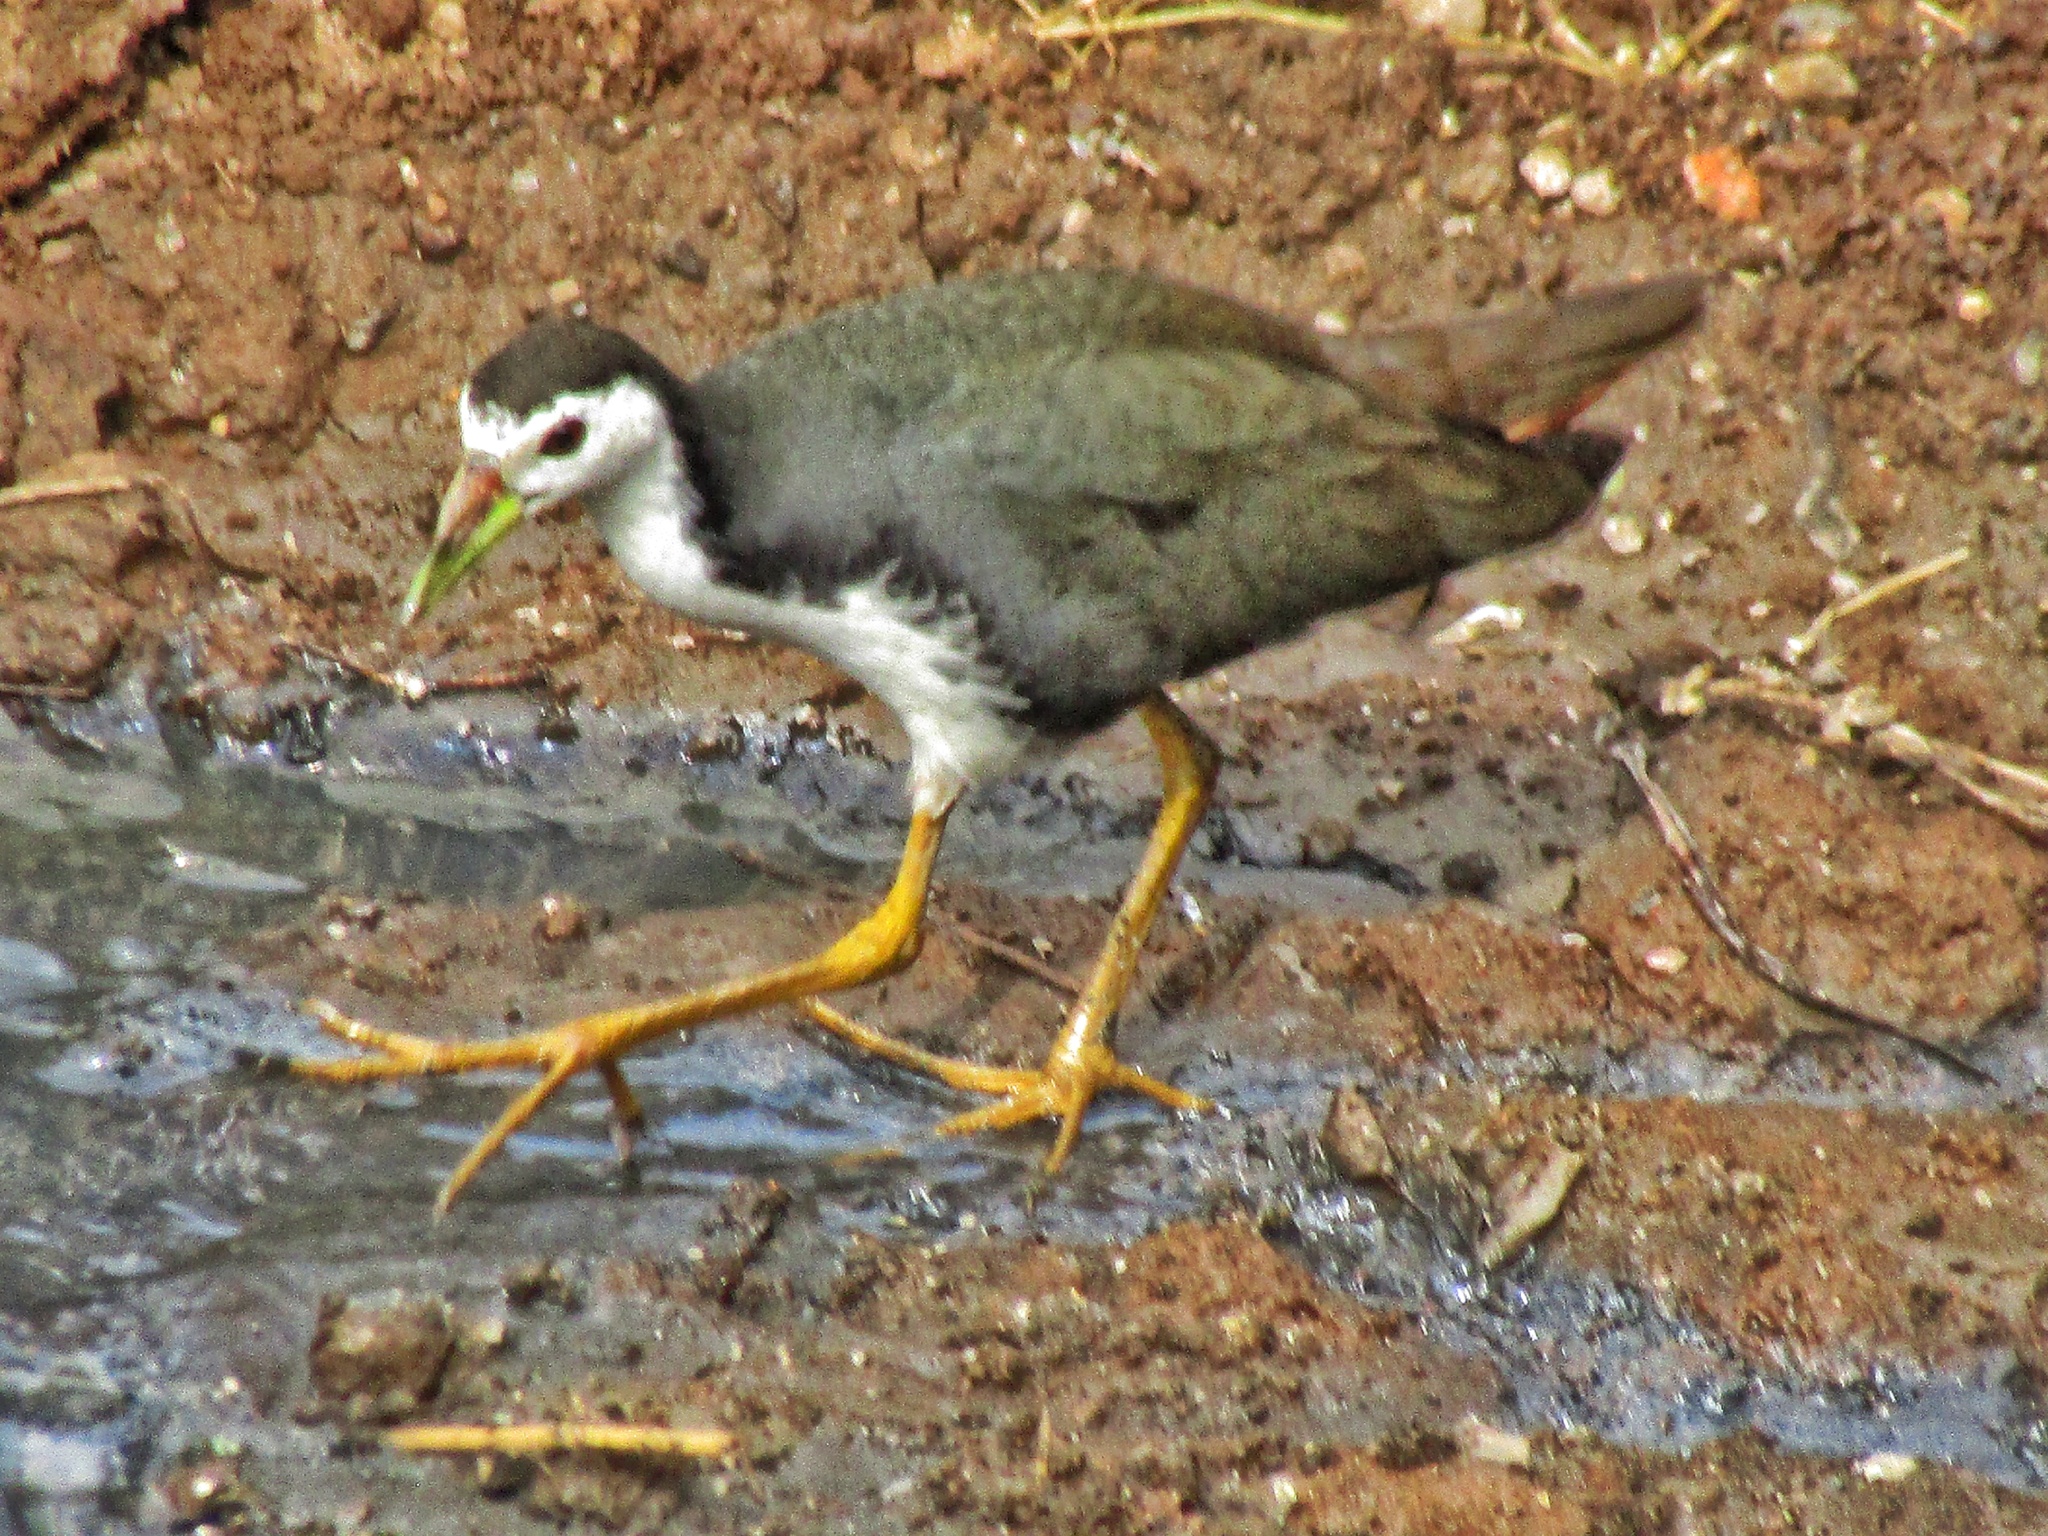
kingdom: Animalia
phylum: Chordata
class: Aves
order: Gruiformes
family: Rallidae
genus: Amaurornis
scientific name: Amaurornis phoenicurus
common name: White-breasted waterhen
